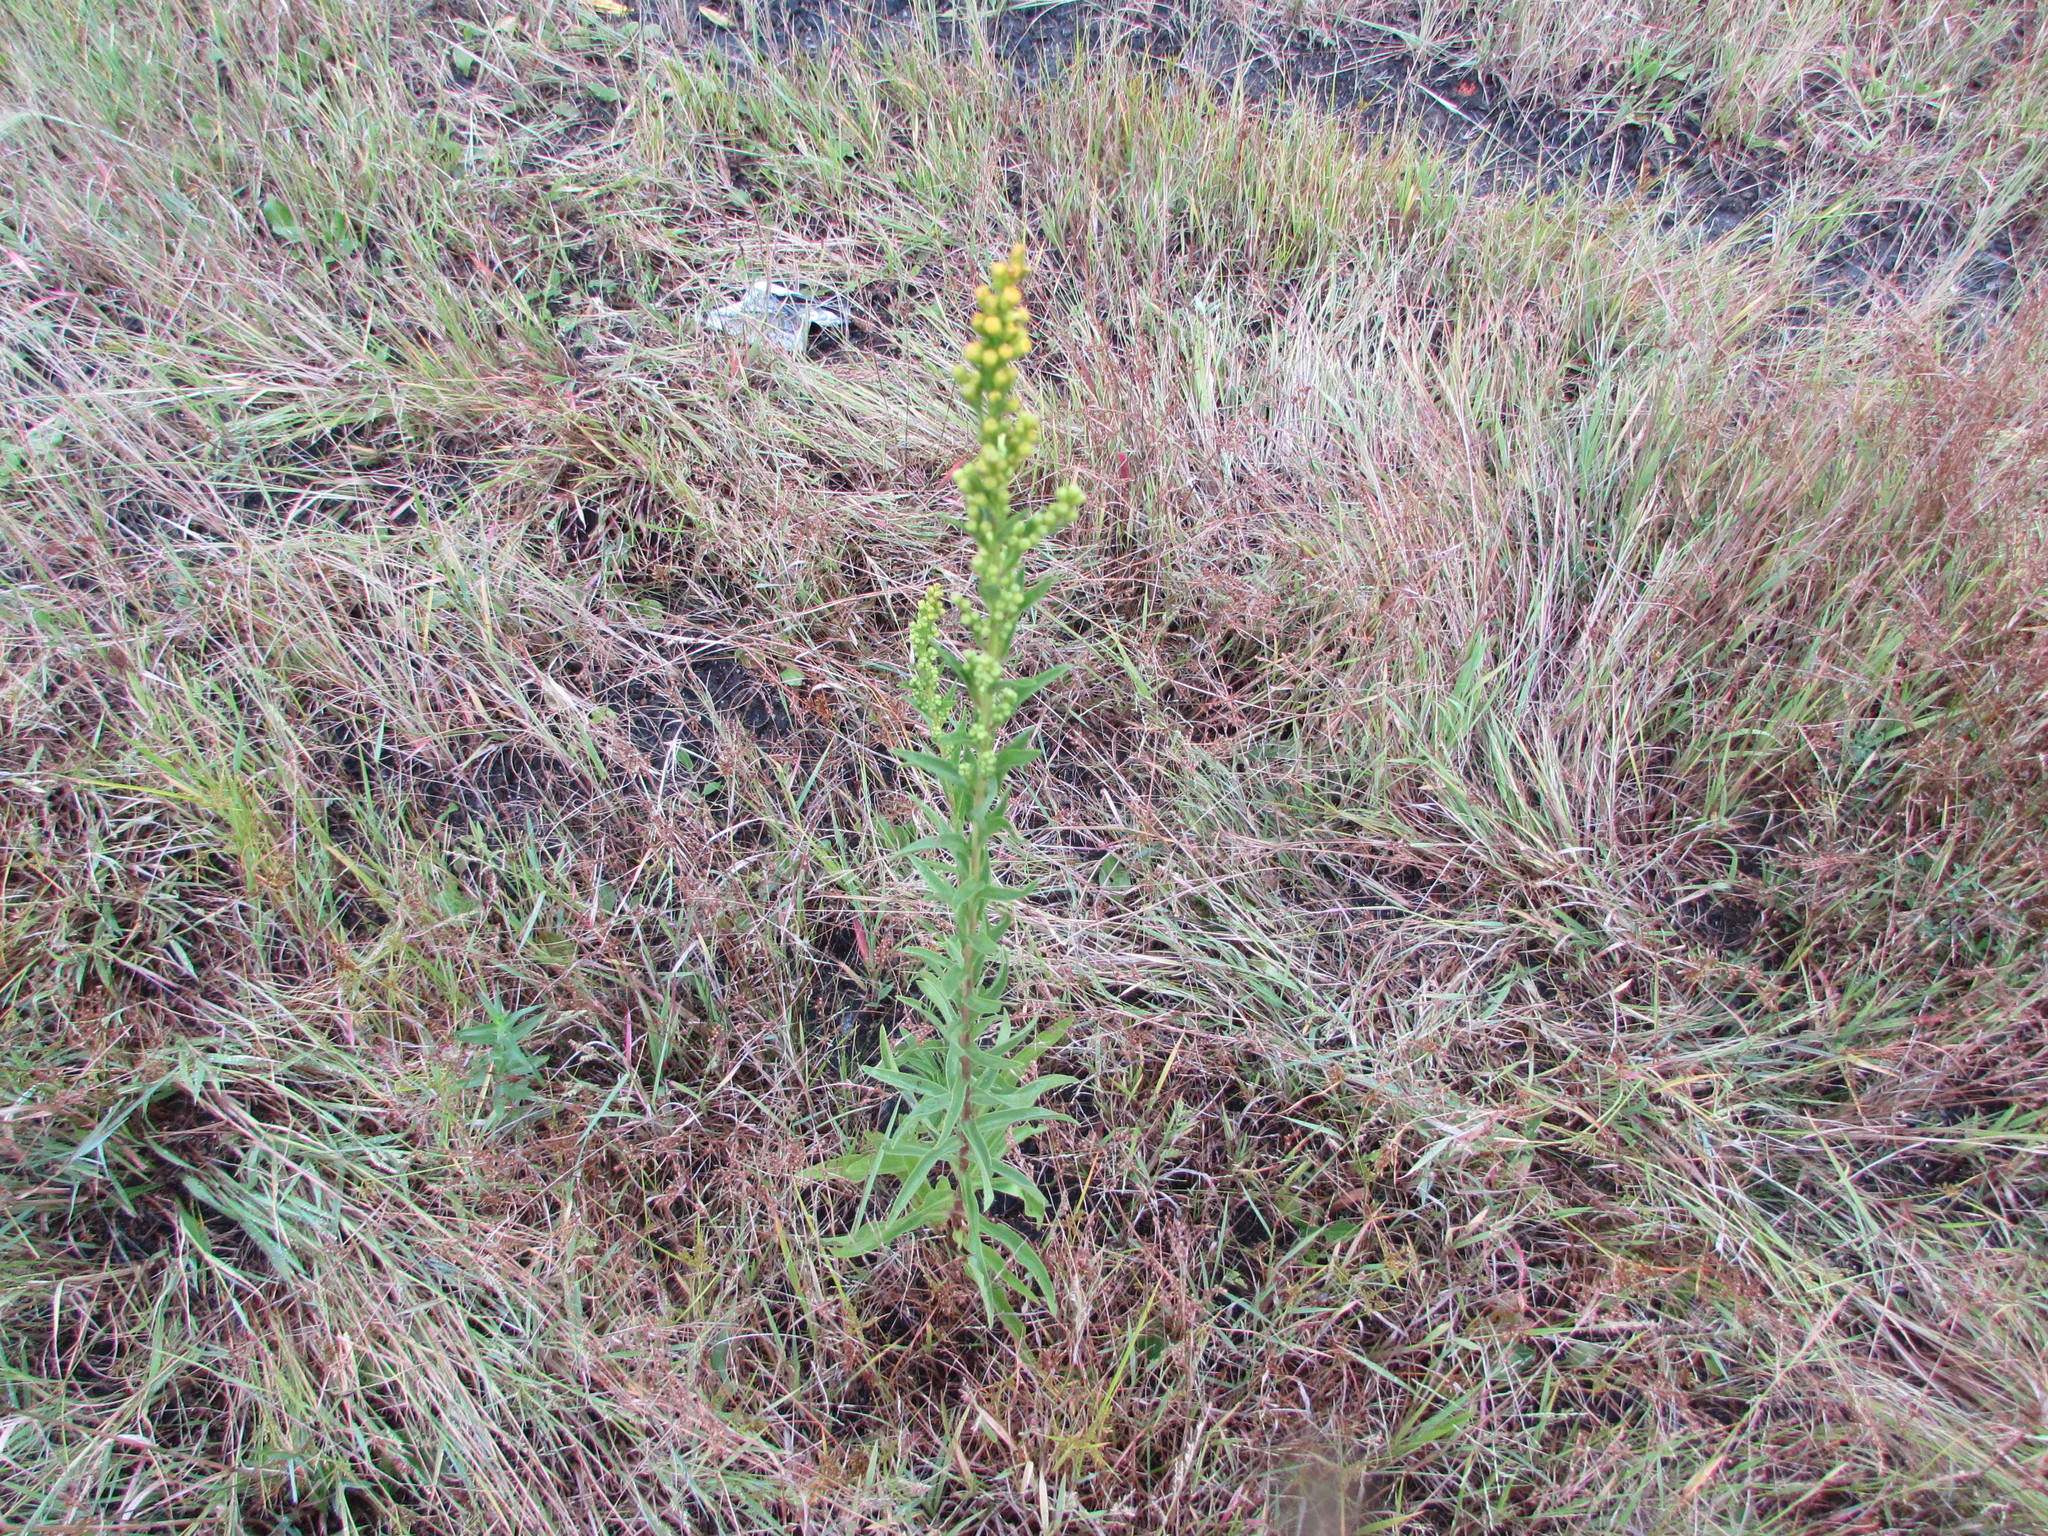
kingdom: Plantae
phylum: Tracheophyta
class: Magnoliopsida
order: Asterales
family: Asteraceae
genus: Solidago
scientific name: Solidago sempervirens
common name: Salt-marsh goldenrod
